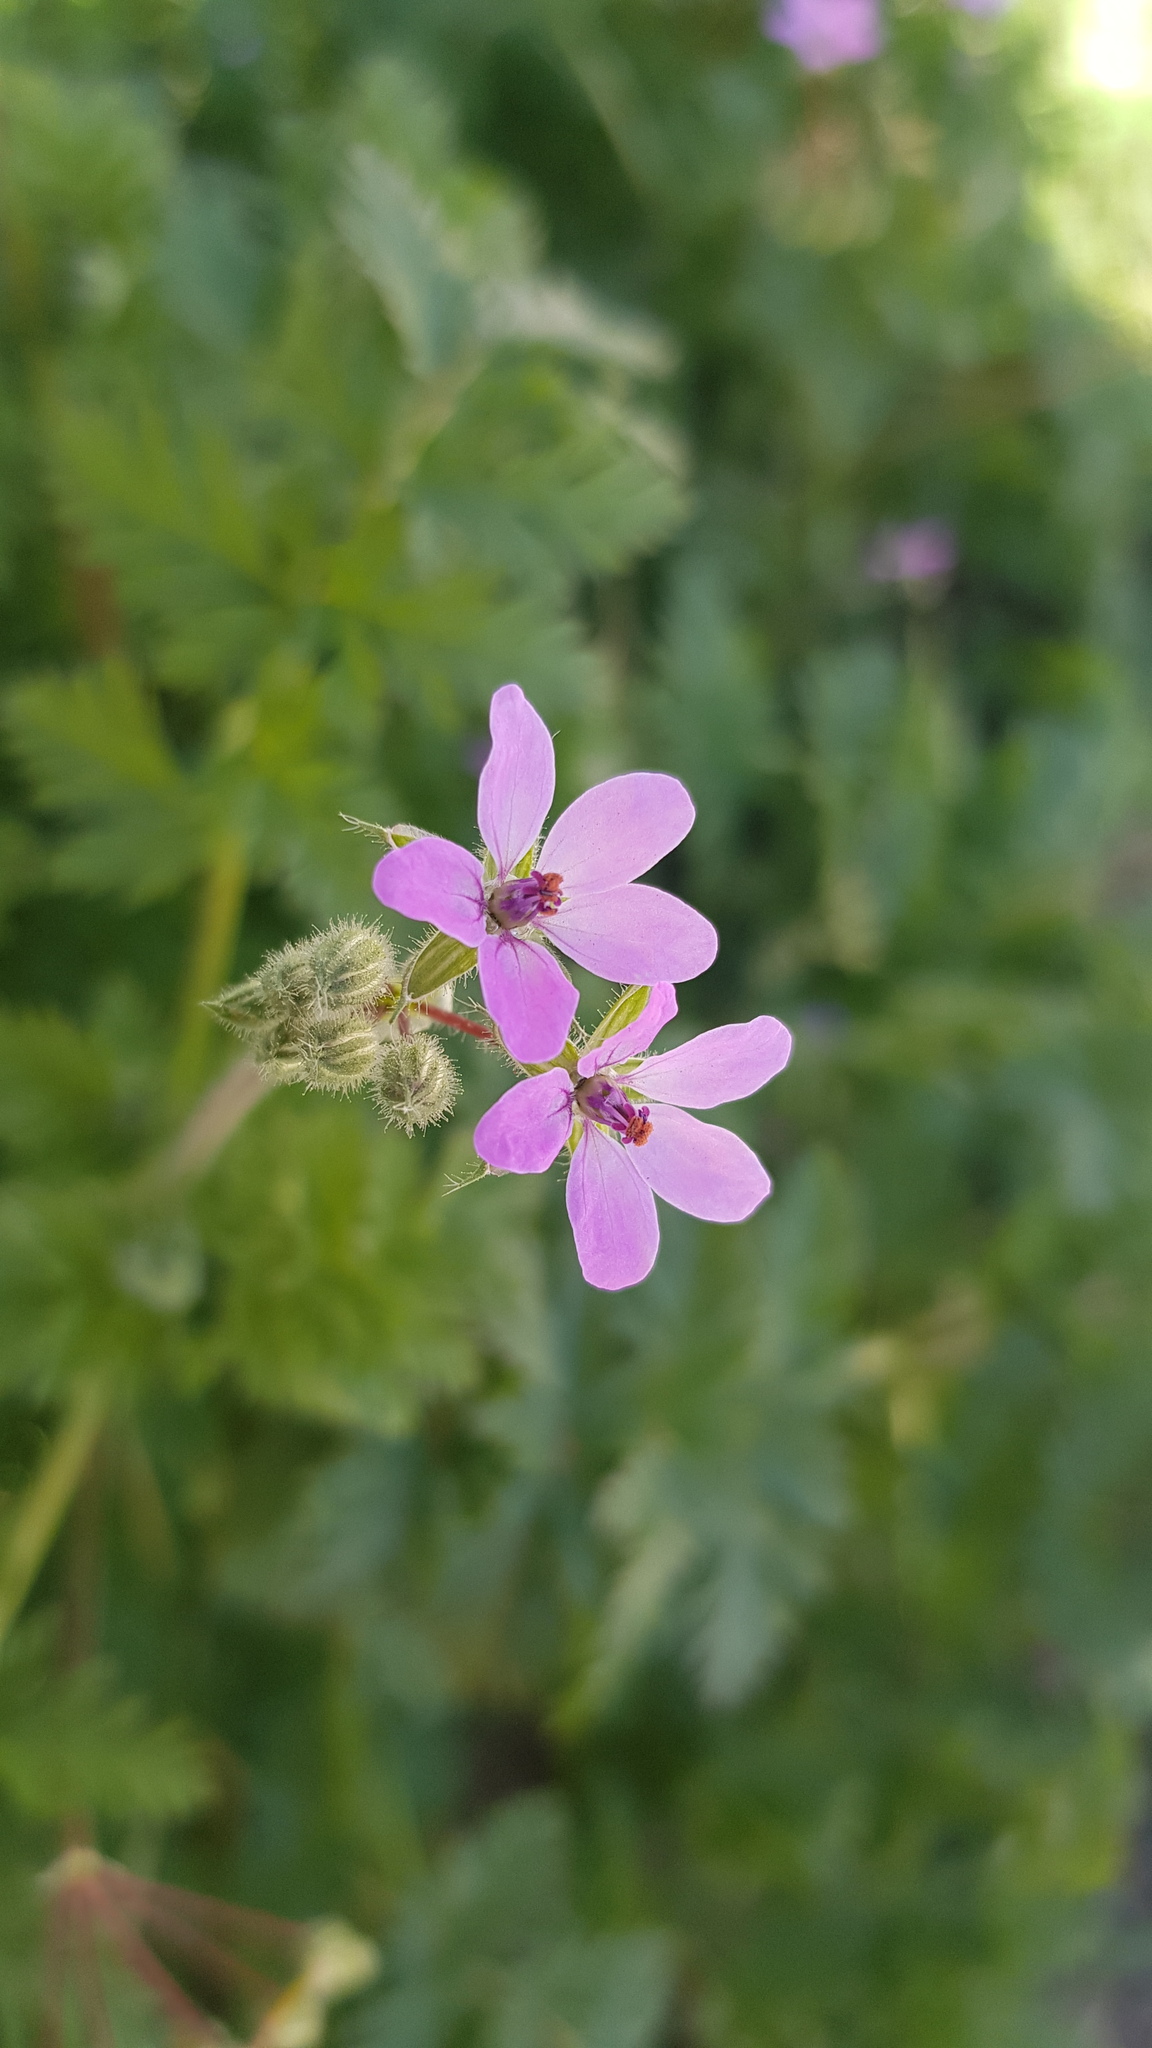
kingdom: Plantae
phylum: Tracheophyta
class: Magnoliopsida
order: Geraniales
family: Geraniaceae
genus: Erodium
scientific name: Erodium cicutarium
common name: Common stork's-bill
